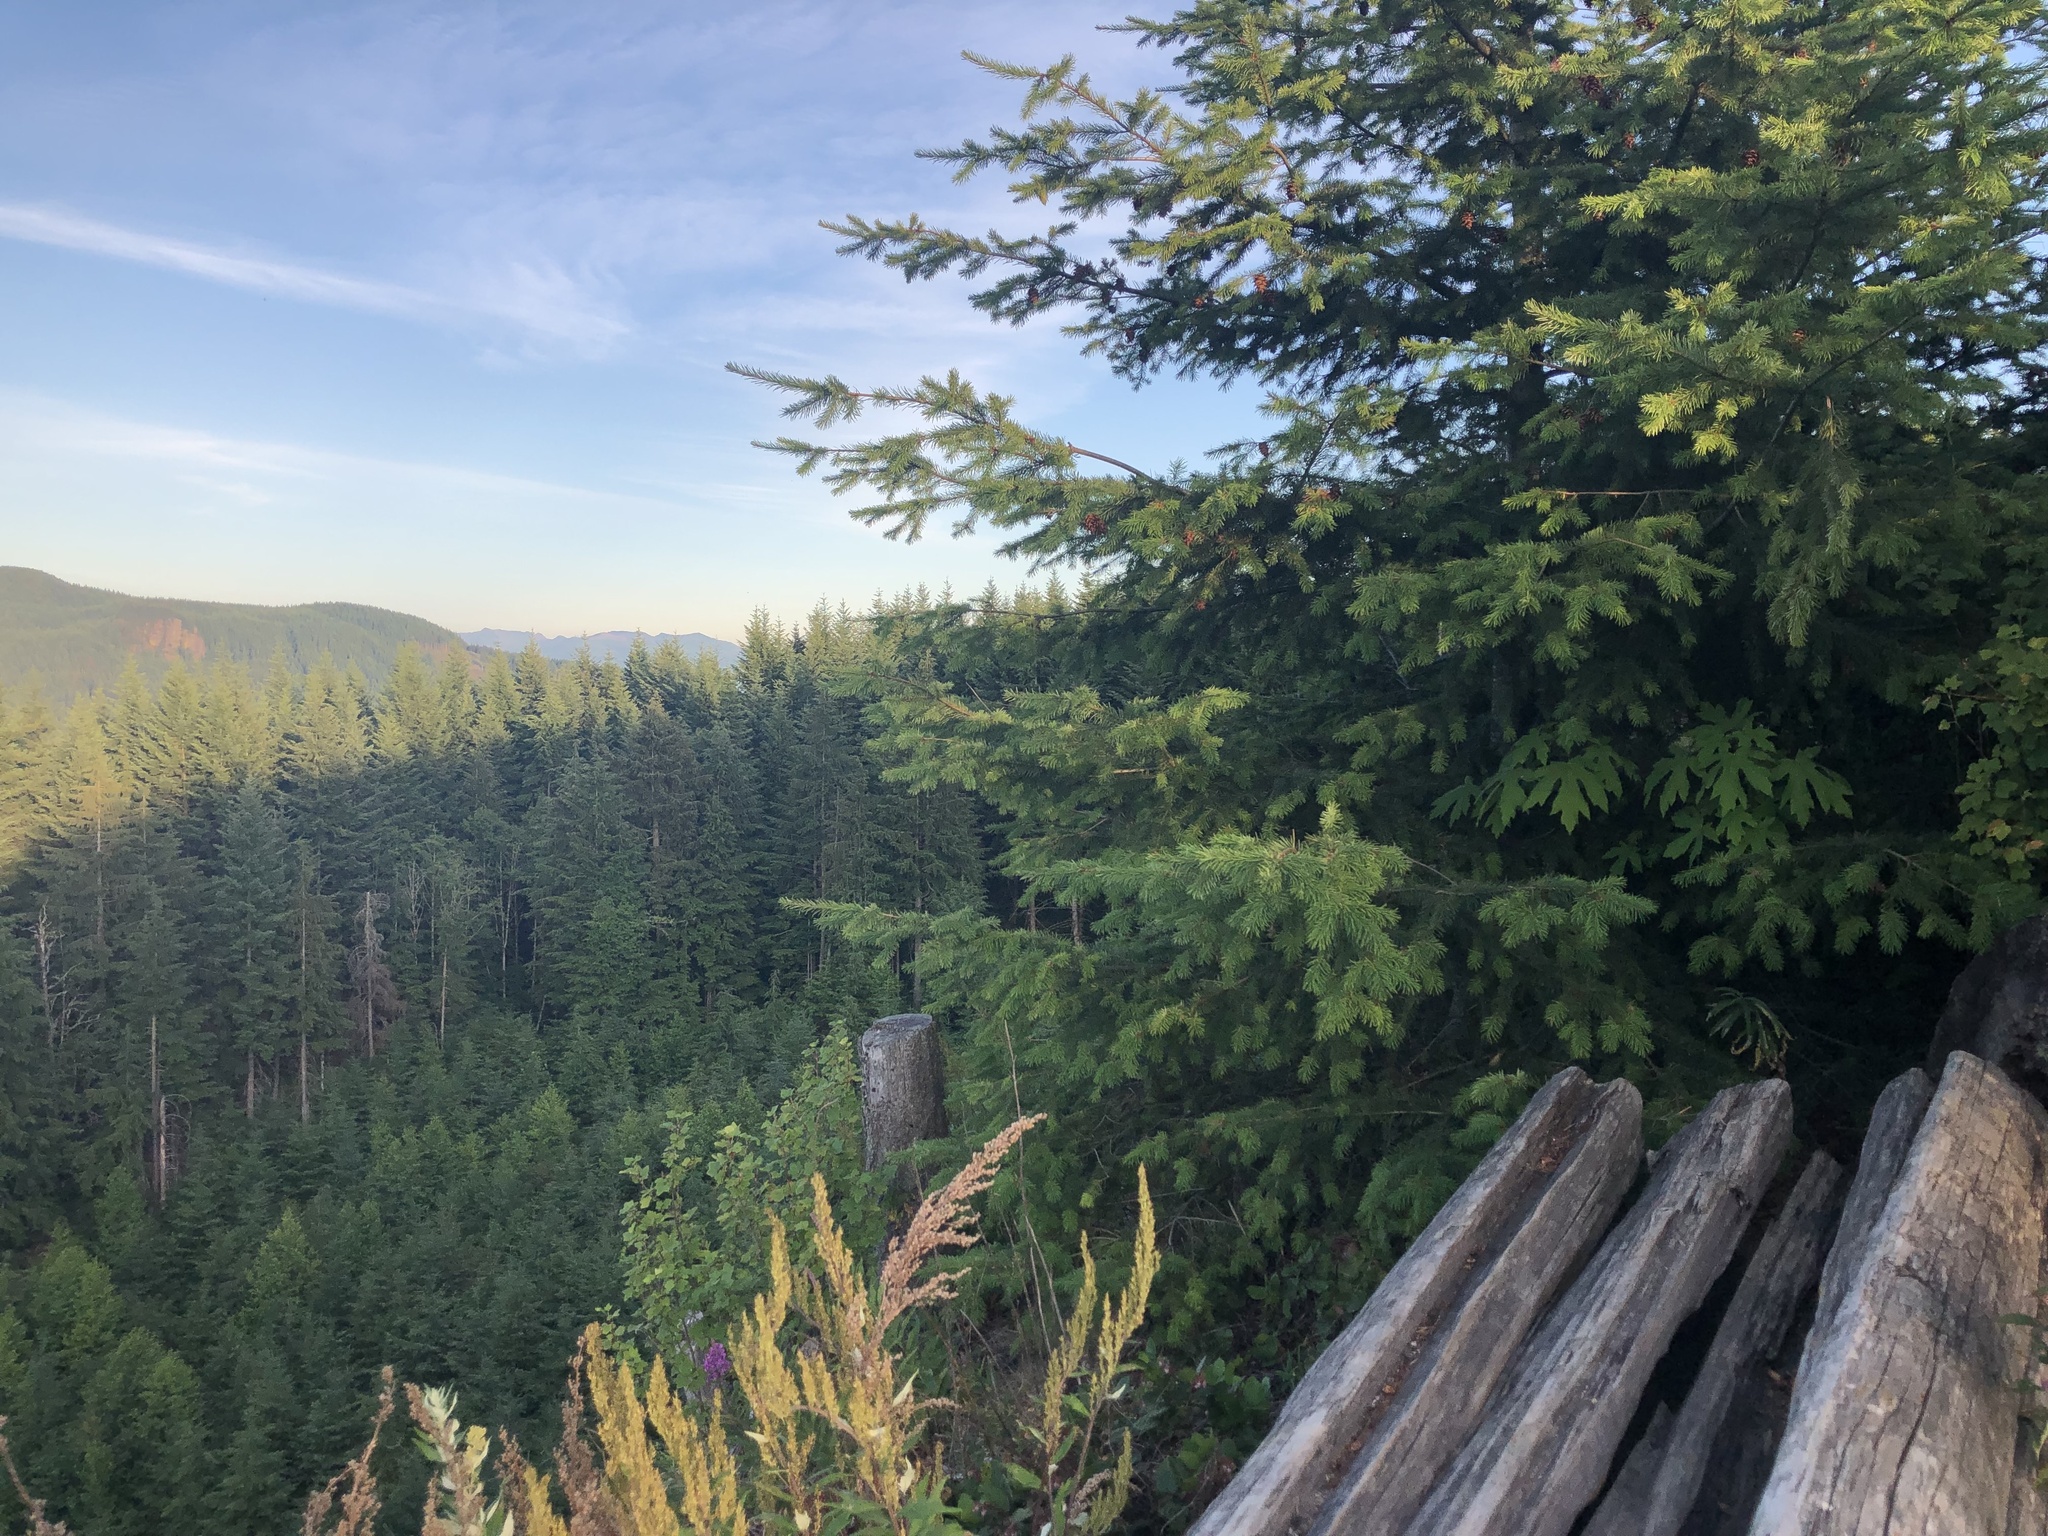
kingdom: Plantae
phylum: Tracheophyta
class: Pinopsida
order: Pinales
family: Pinaceae
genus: Pseudotsuga
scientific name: Pseudotsuga menziesii
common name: Douglas fir
